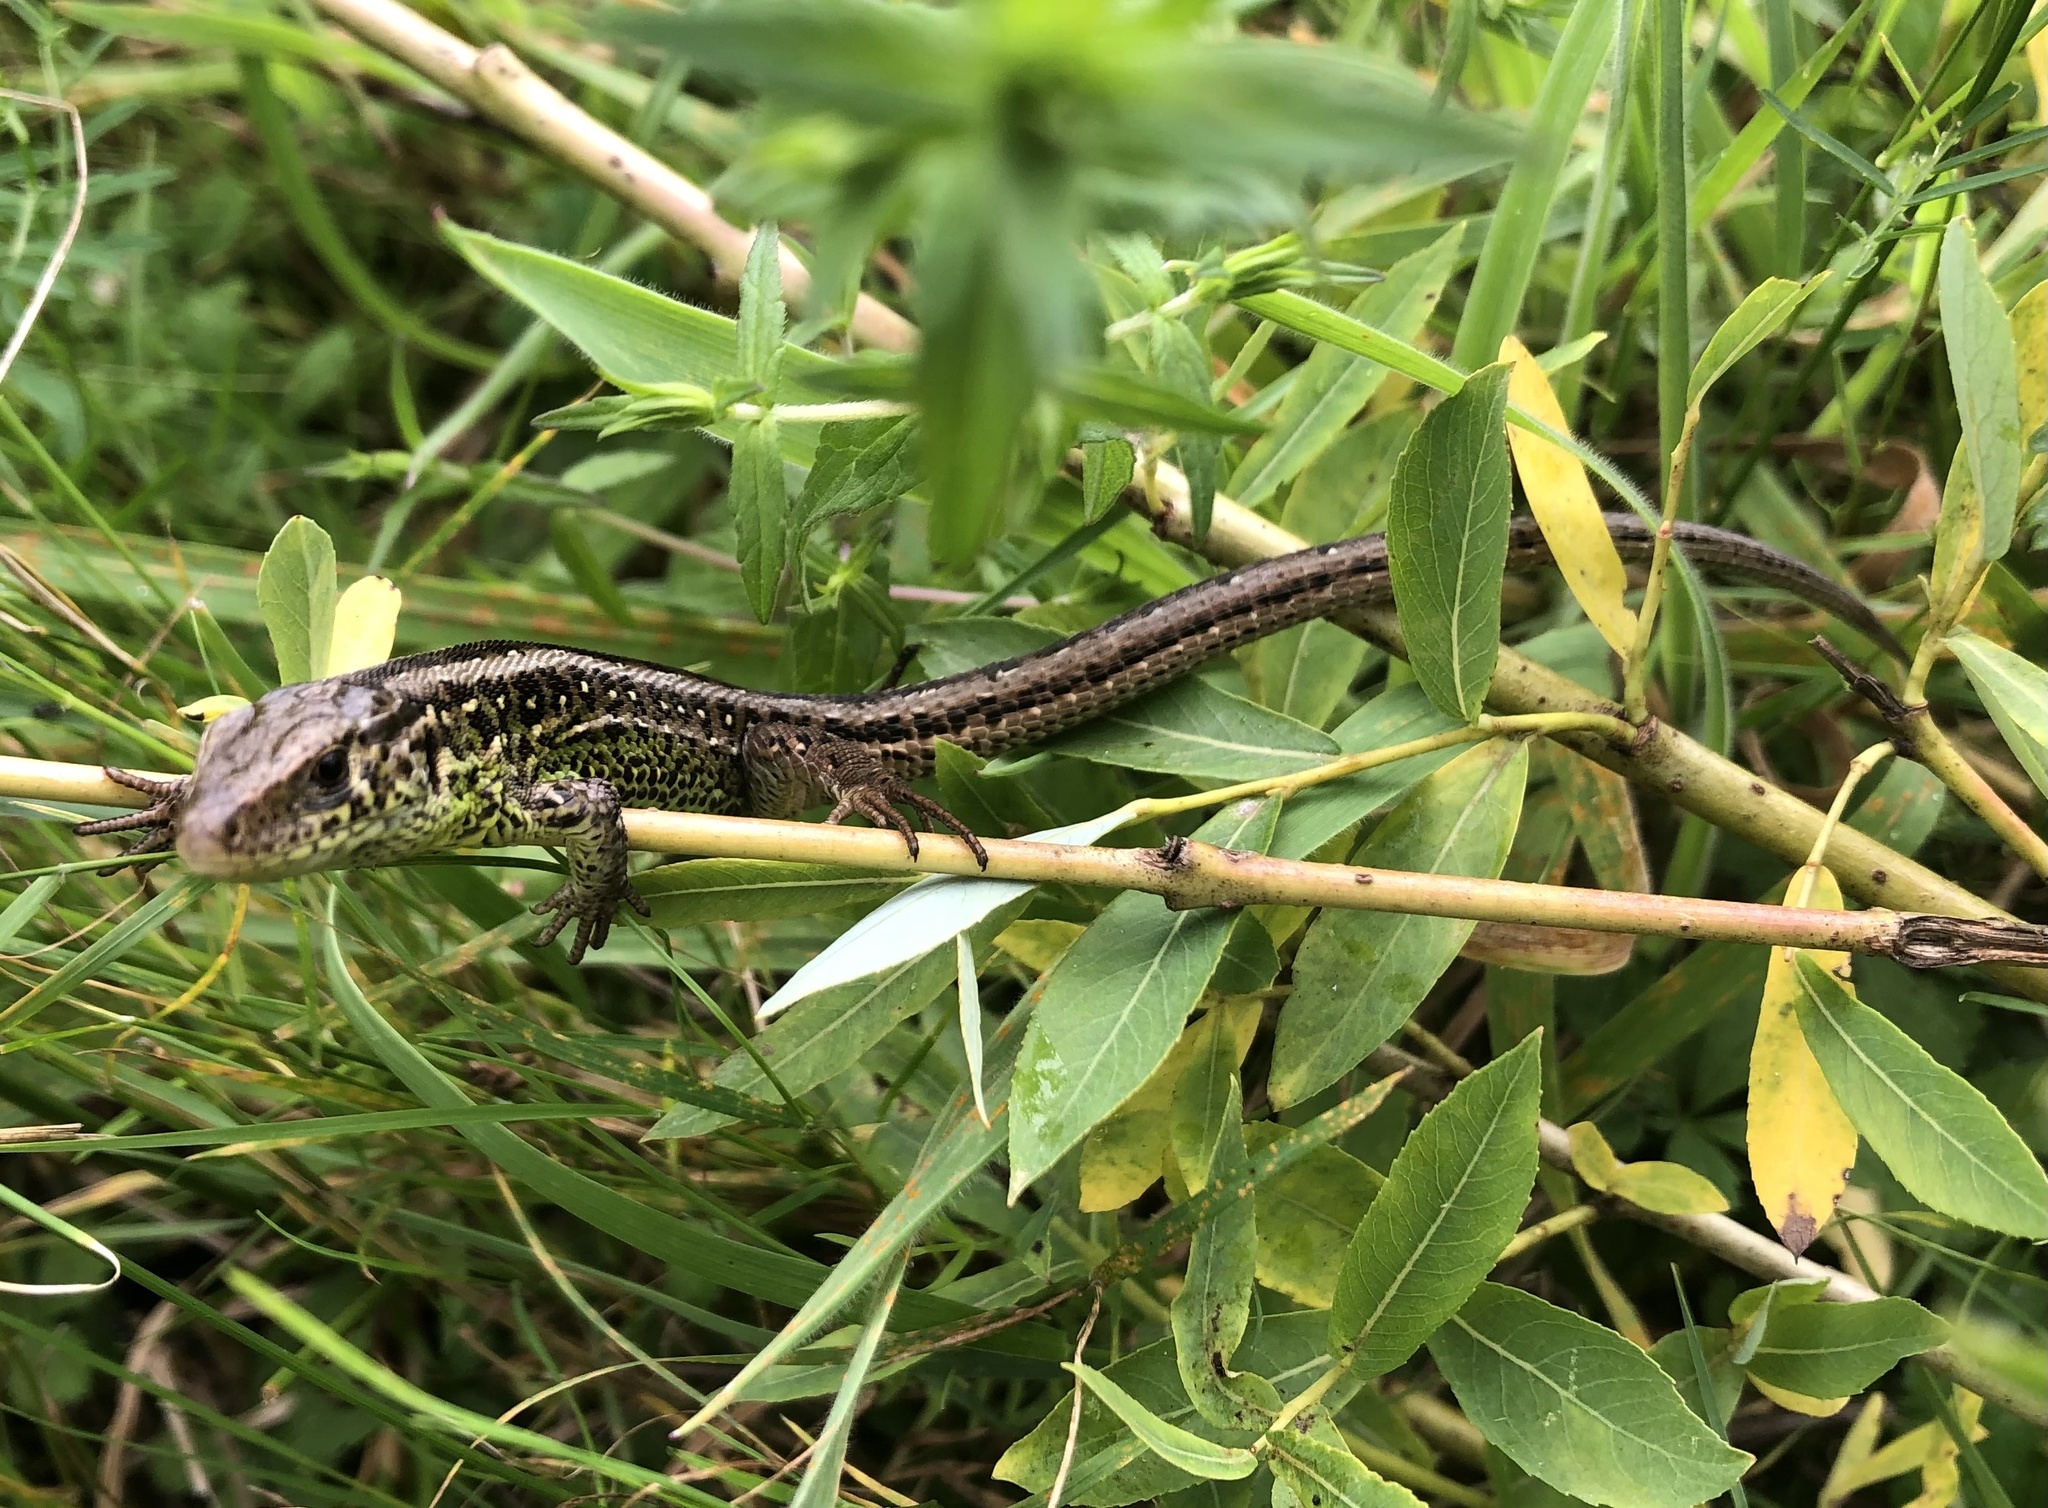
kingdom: Animalia
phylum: Chordata
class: Squamata
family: Lacertidae
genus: Lacerta
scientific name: Lacerta agilis
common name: Sand lizard
